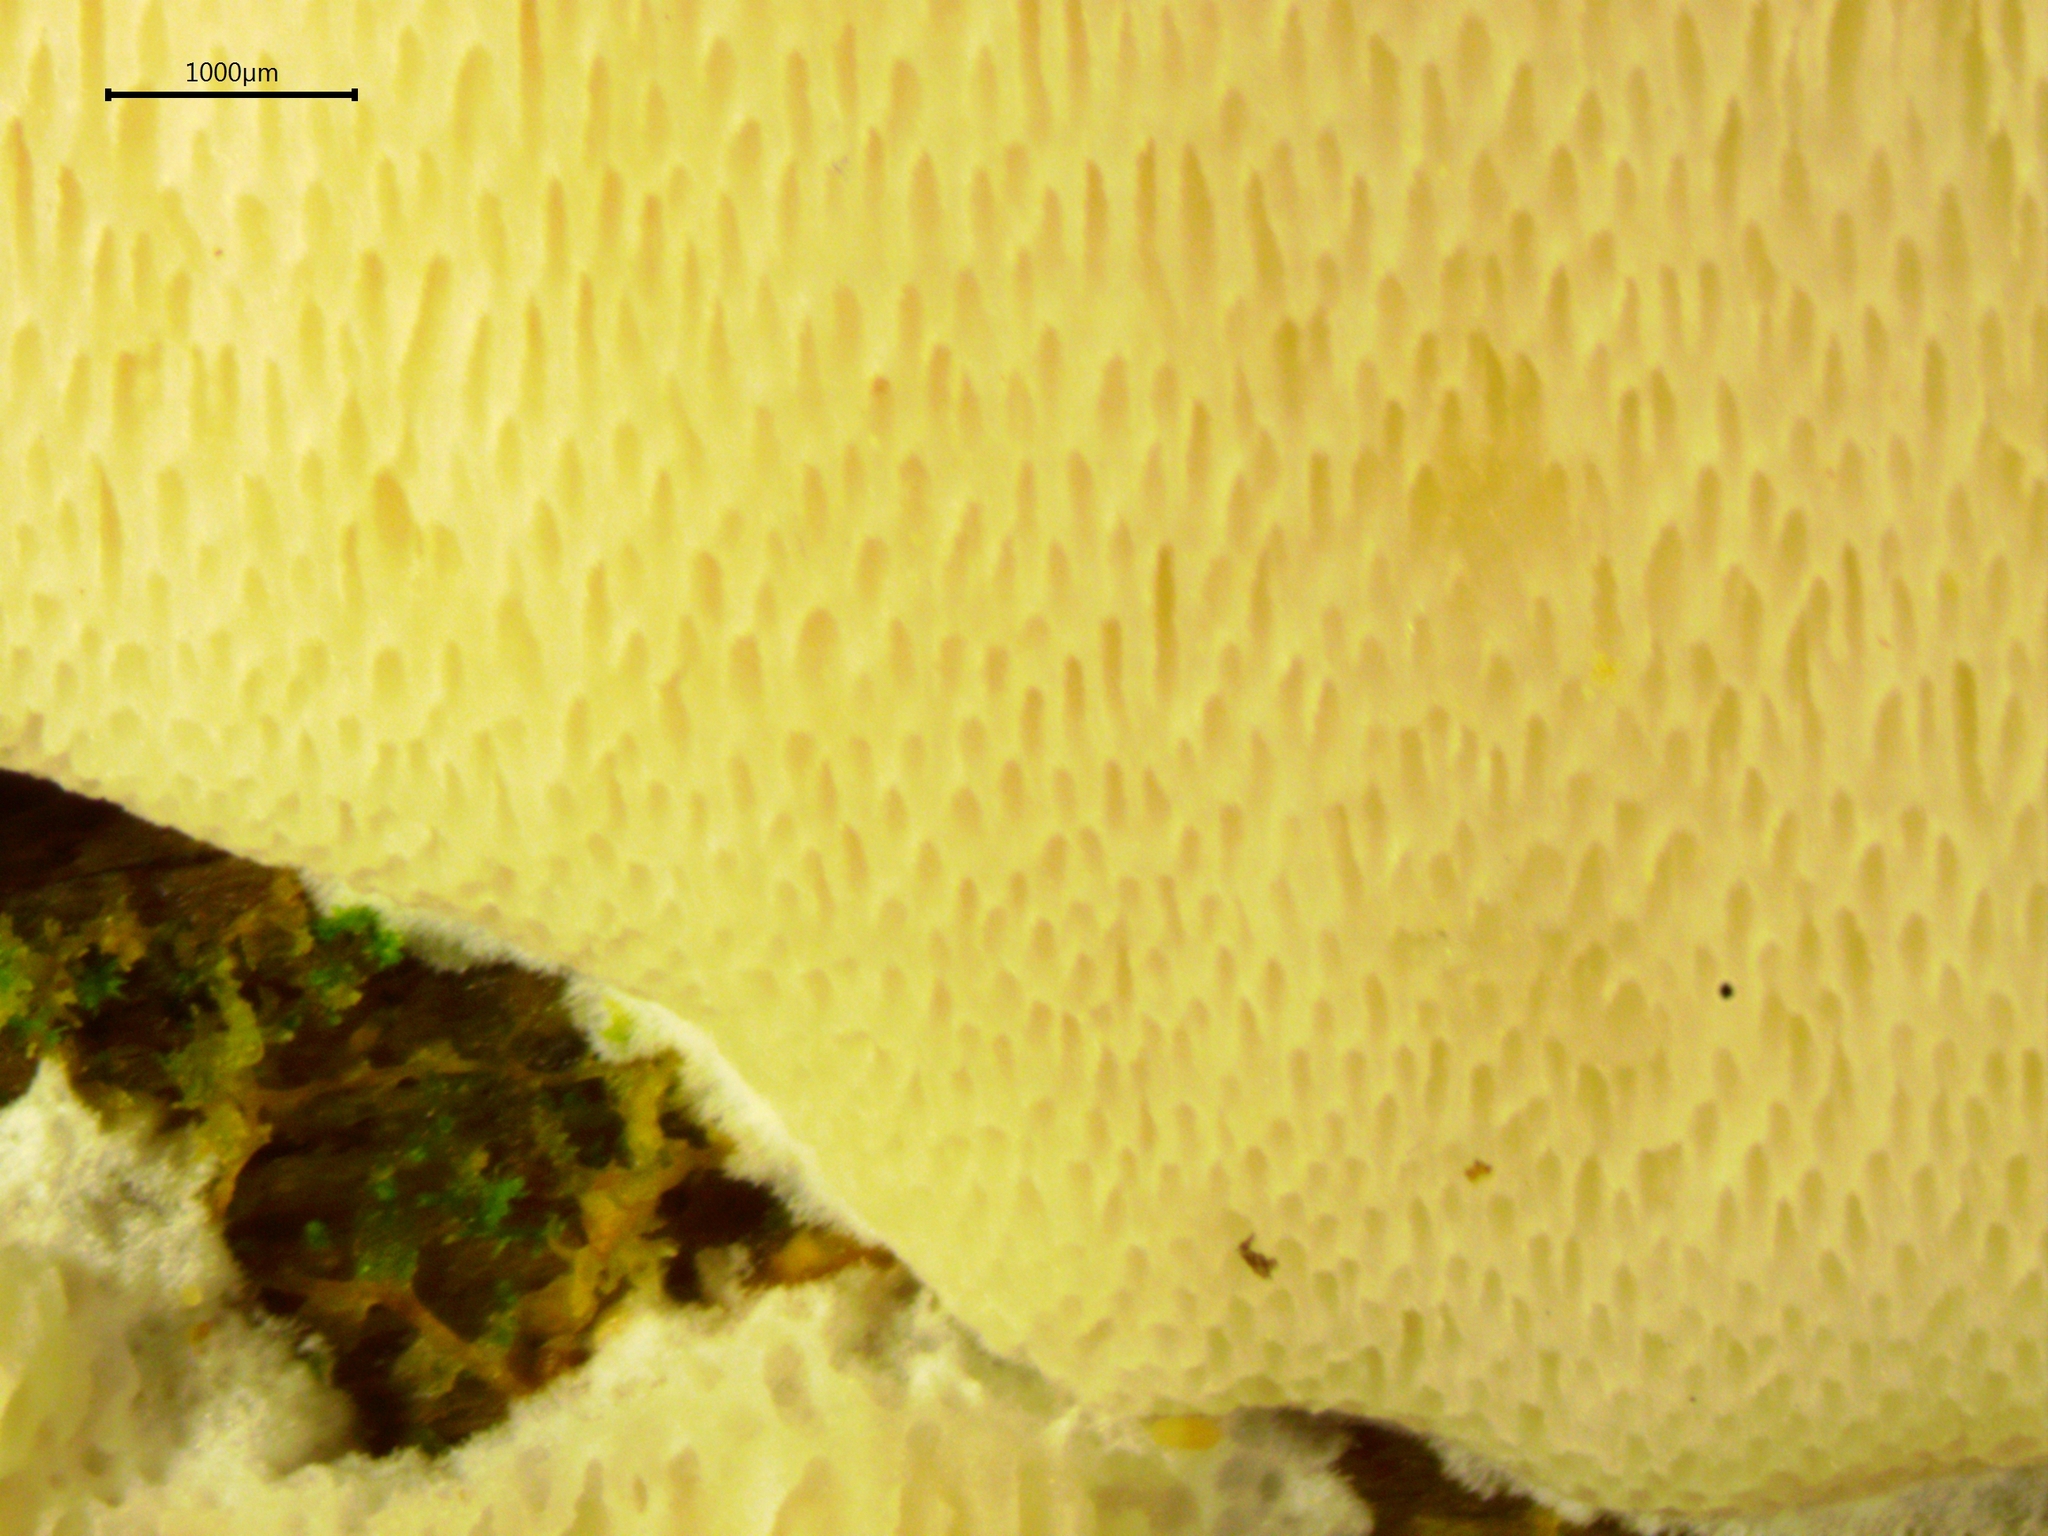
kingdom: Fungi
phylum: Basidiomycota
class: Agaricomycetes
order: Polyporales
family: Polyporaceae
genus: Poriella
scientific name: Poriella subacida
